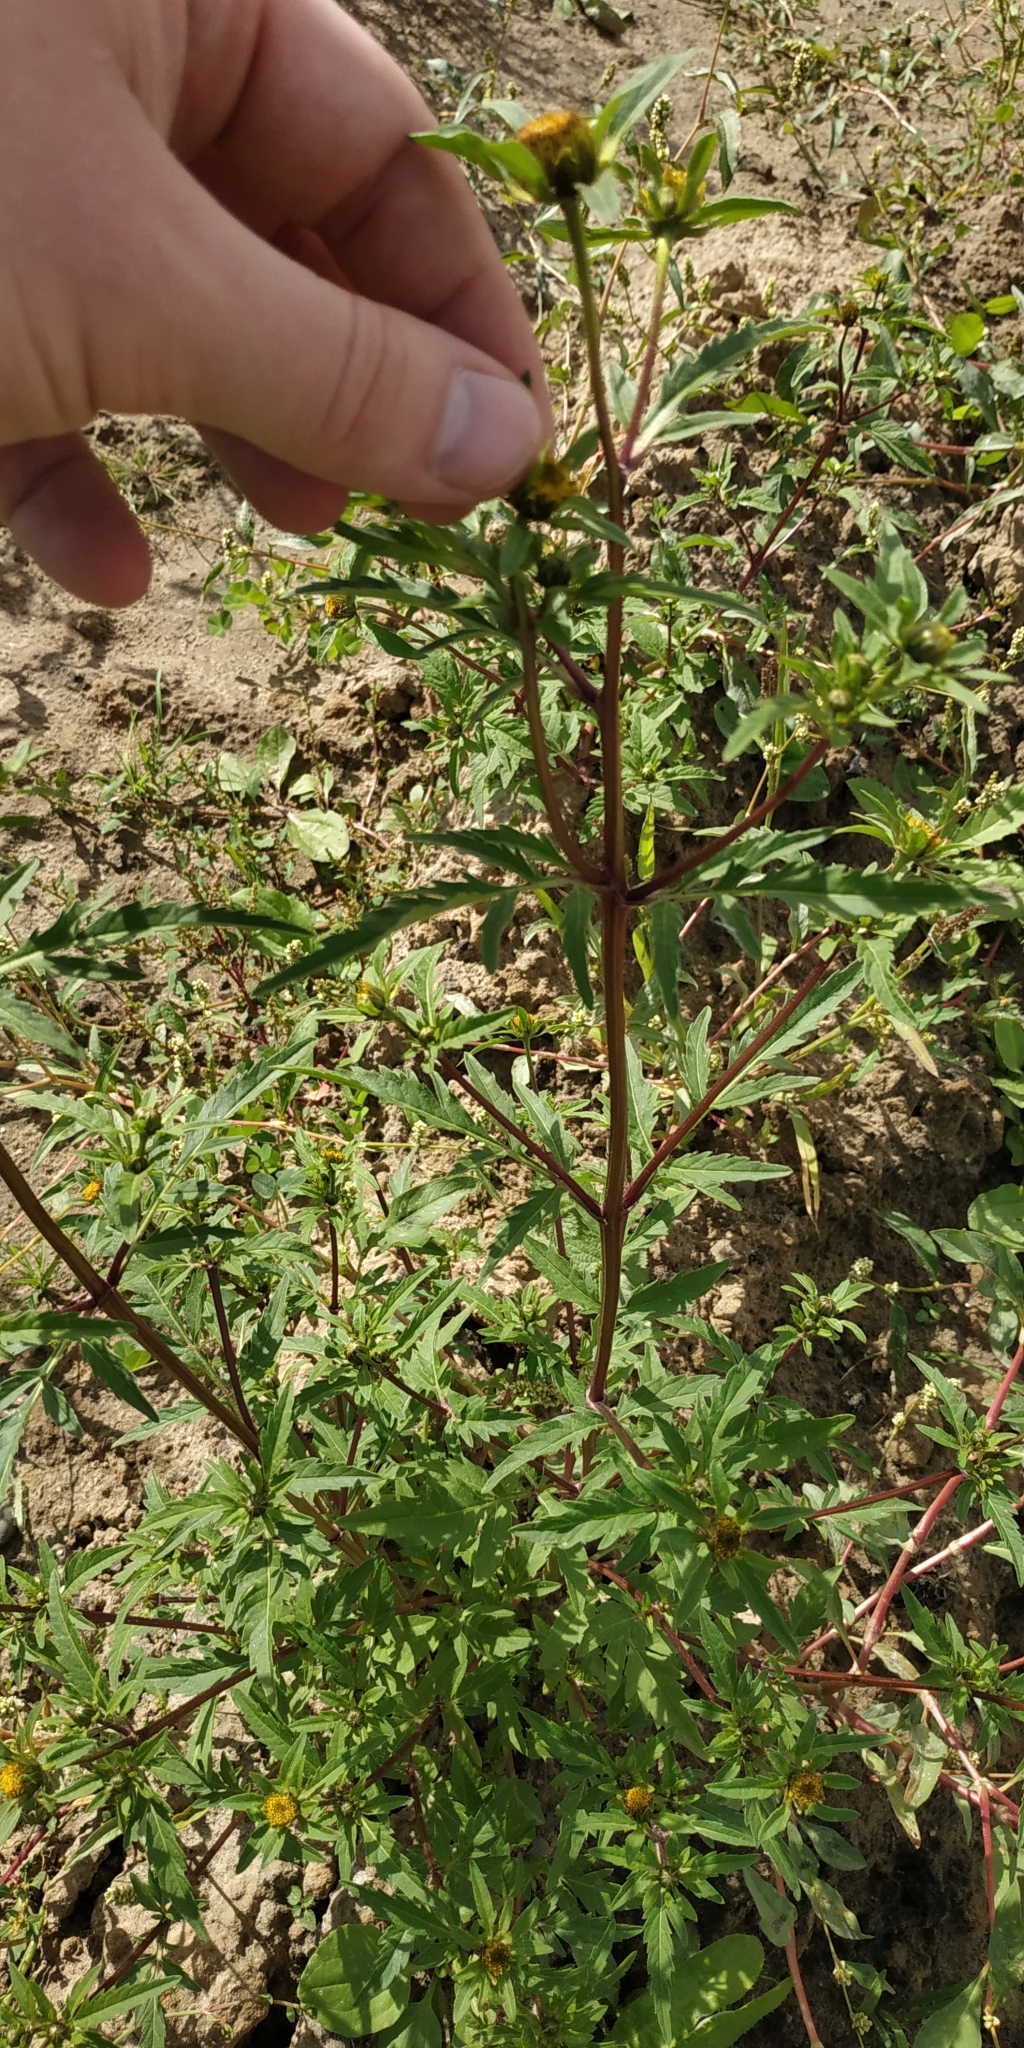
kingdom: Plantae
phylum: Tracheophyta
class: Magnoliopsida
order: Asterales
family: Asteraceae
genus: Bidens
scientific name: Bidens radiata
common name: Radiating bur-marigold
